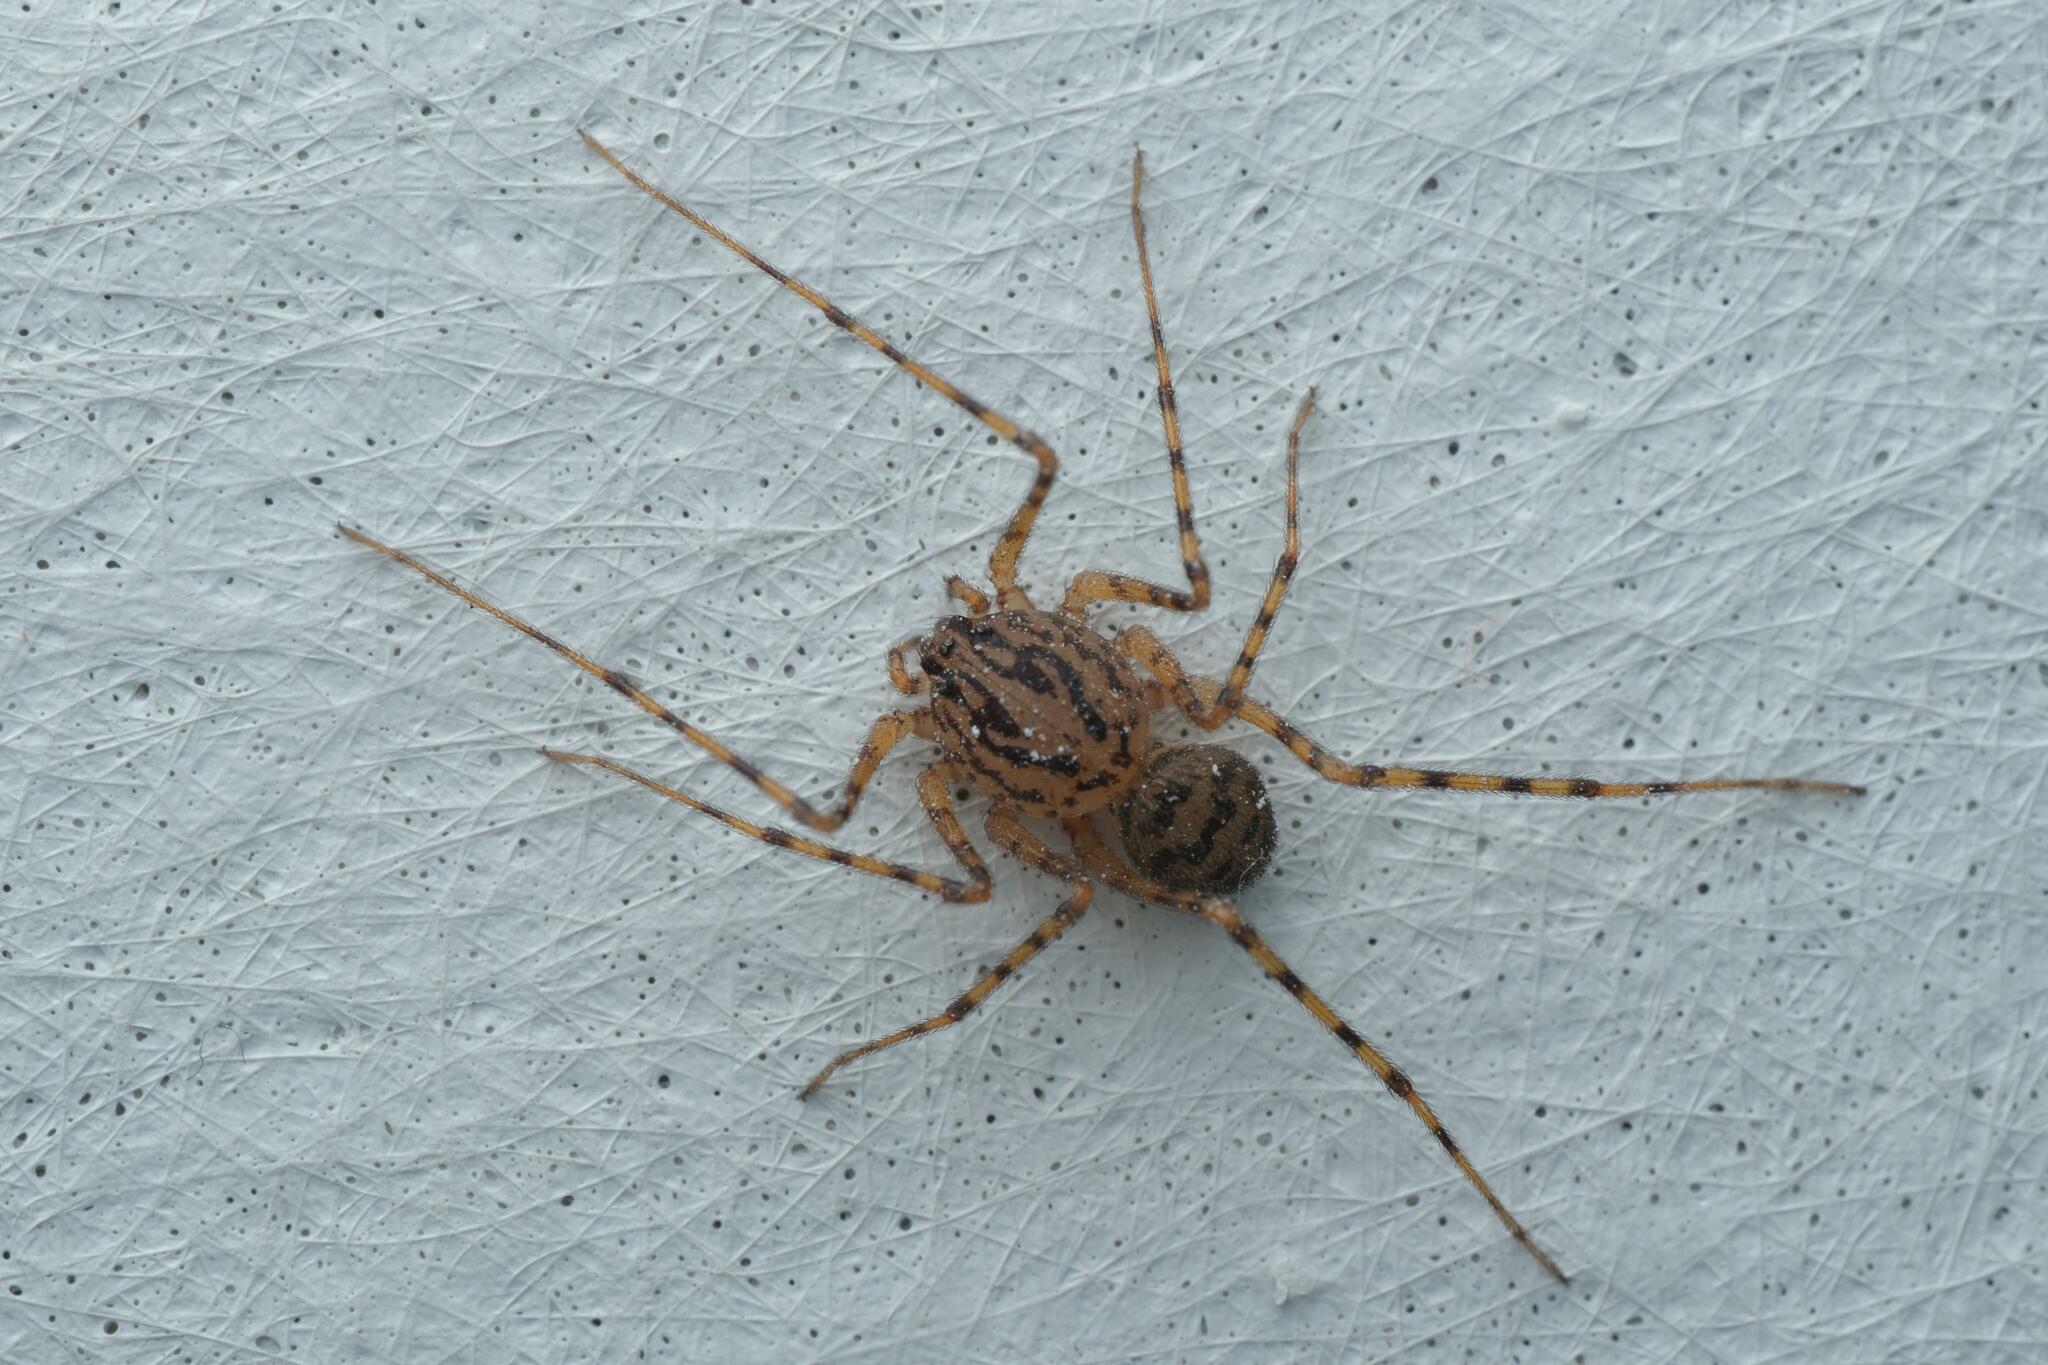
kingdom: Animalia
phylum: Arthropoda
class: Arachnida
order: Araneae
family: Scytodidae
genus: Scytodes
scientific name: Scytodes thoracica
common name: Spitting spider
